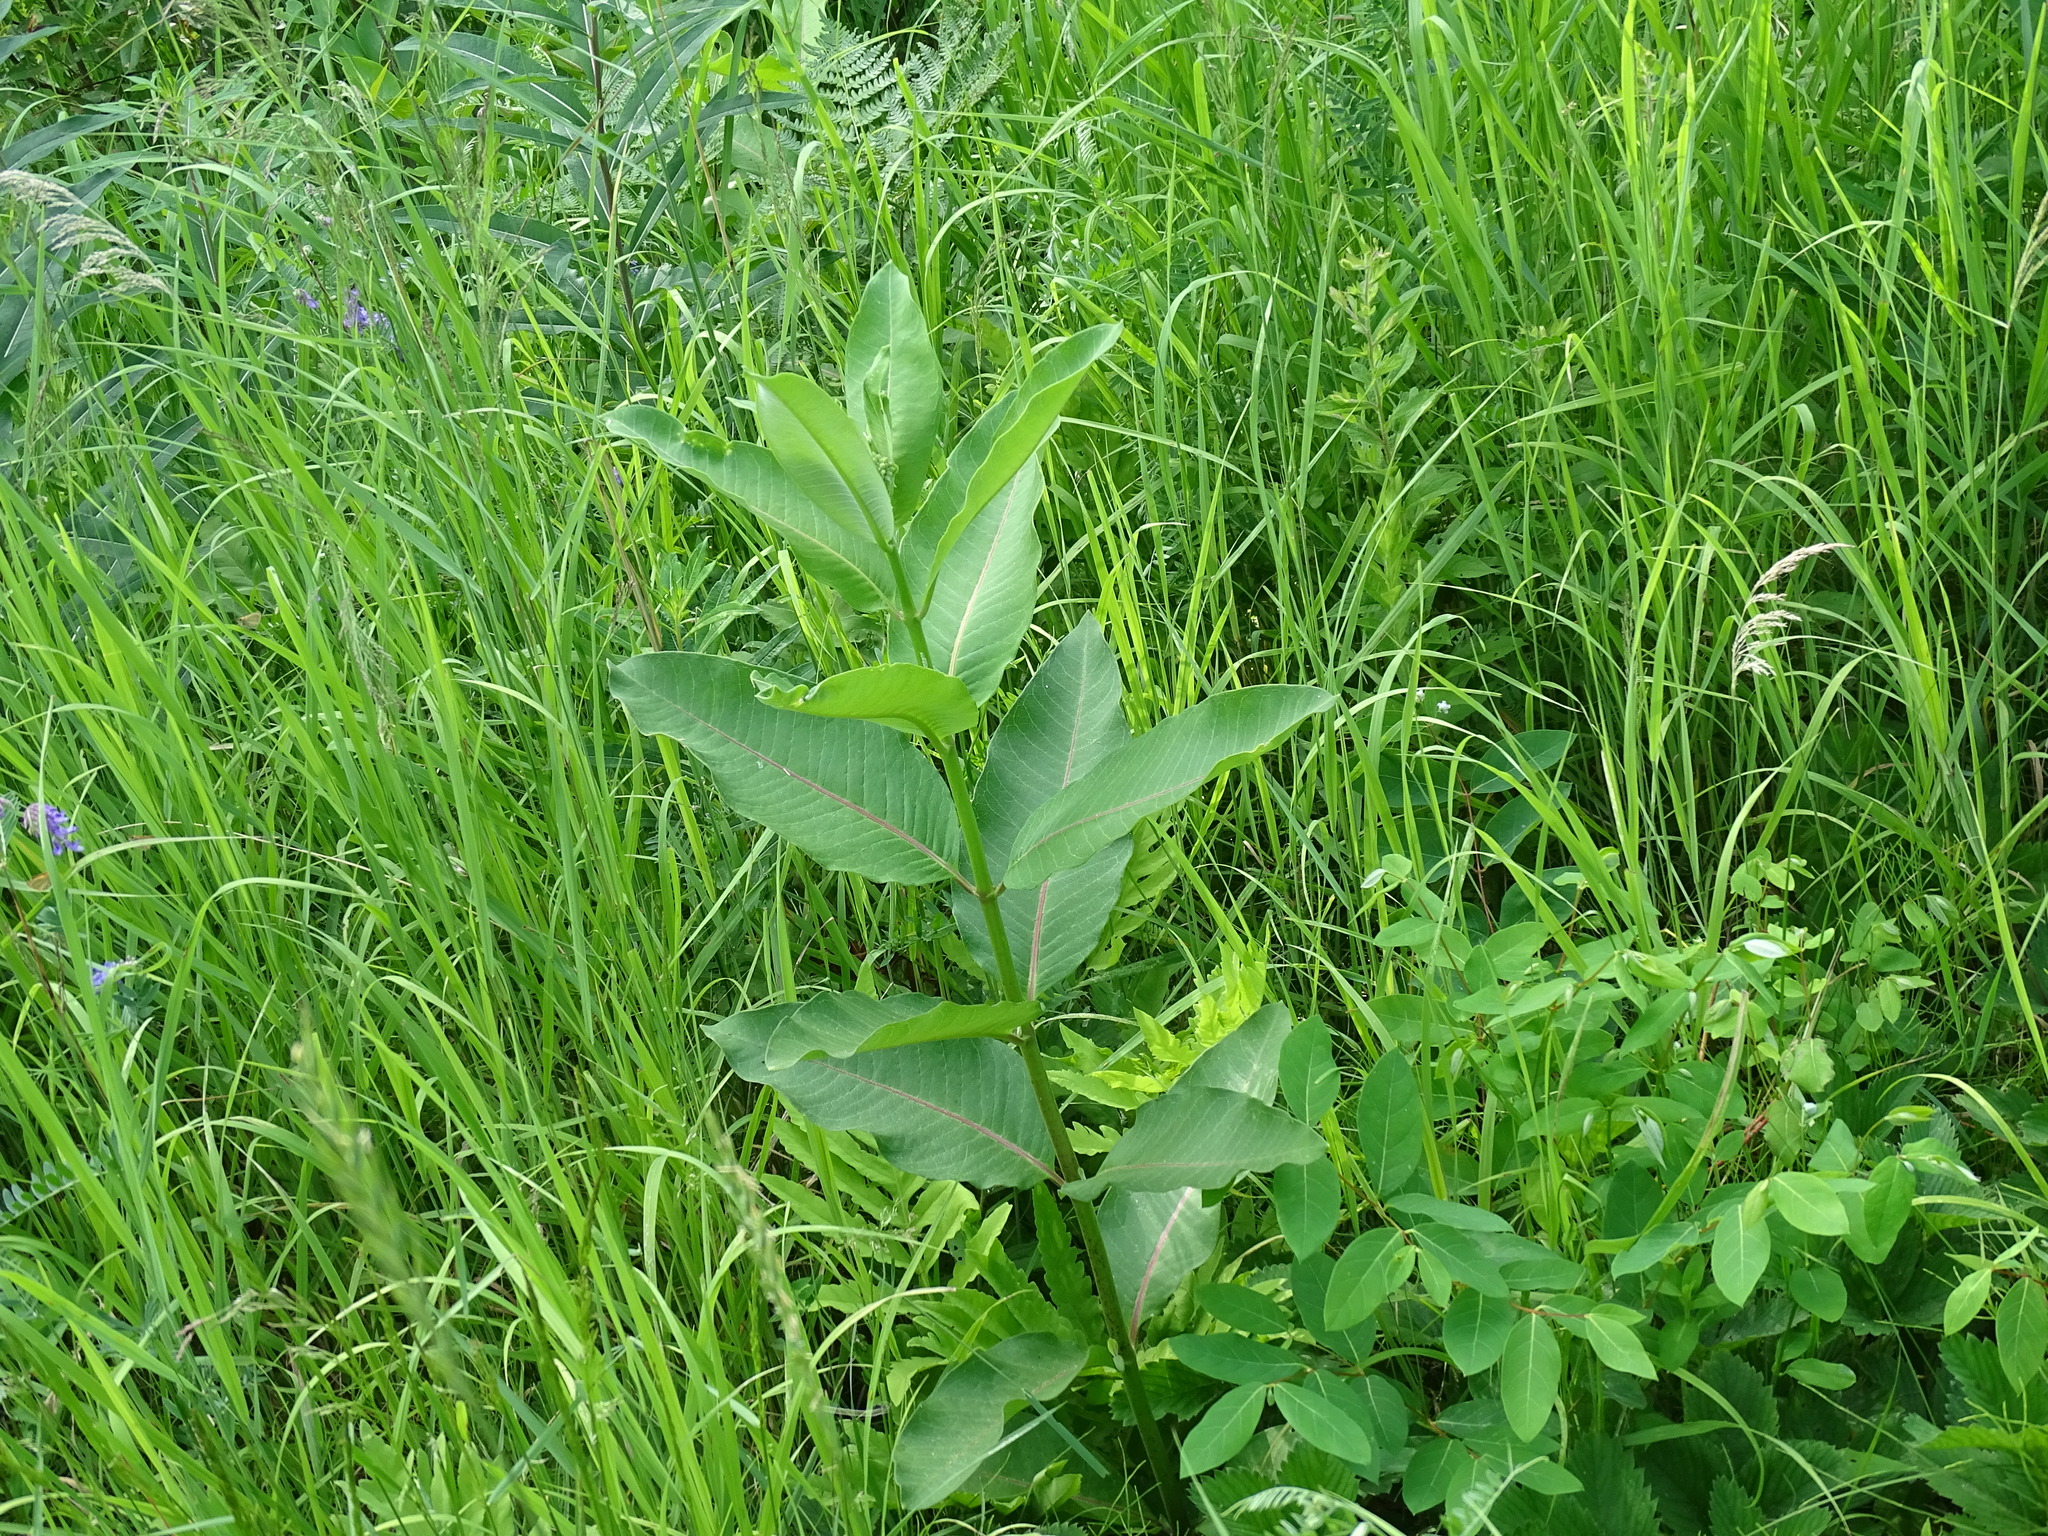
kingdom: Plantae
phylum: Tracheophyta
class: Magnoliopsida
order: Gentianales
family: Apocynaceae
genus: Asclepias
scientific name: Asclepias syriaca
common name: Common milkweed
